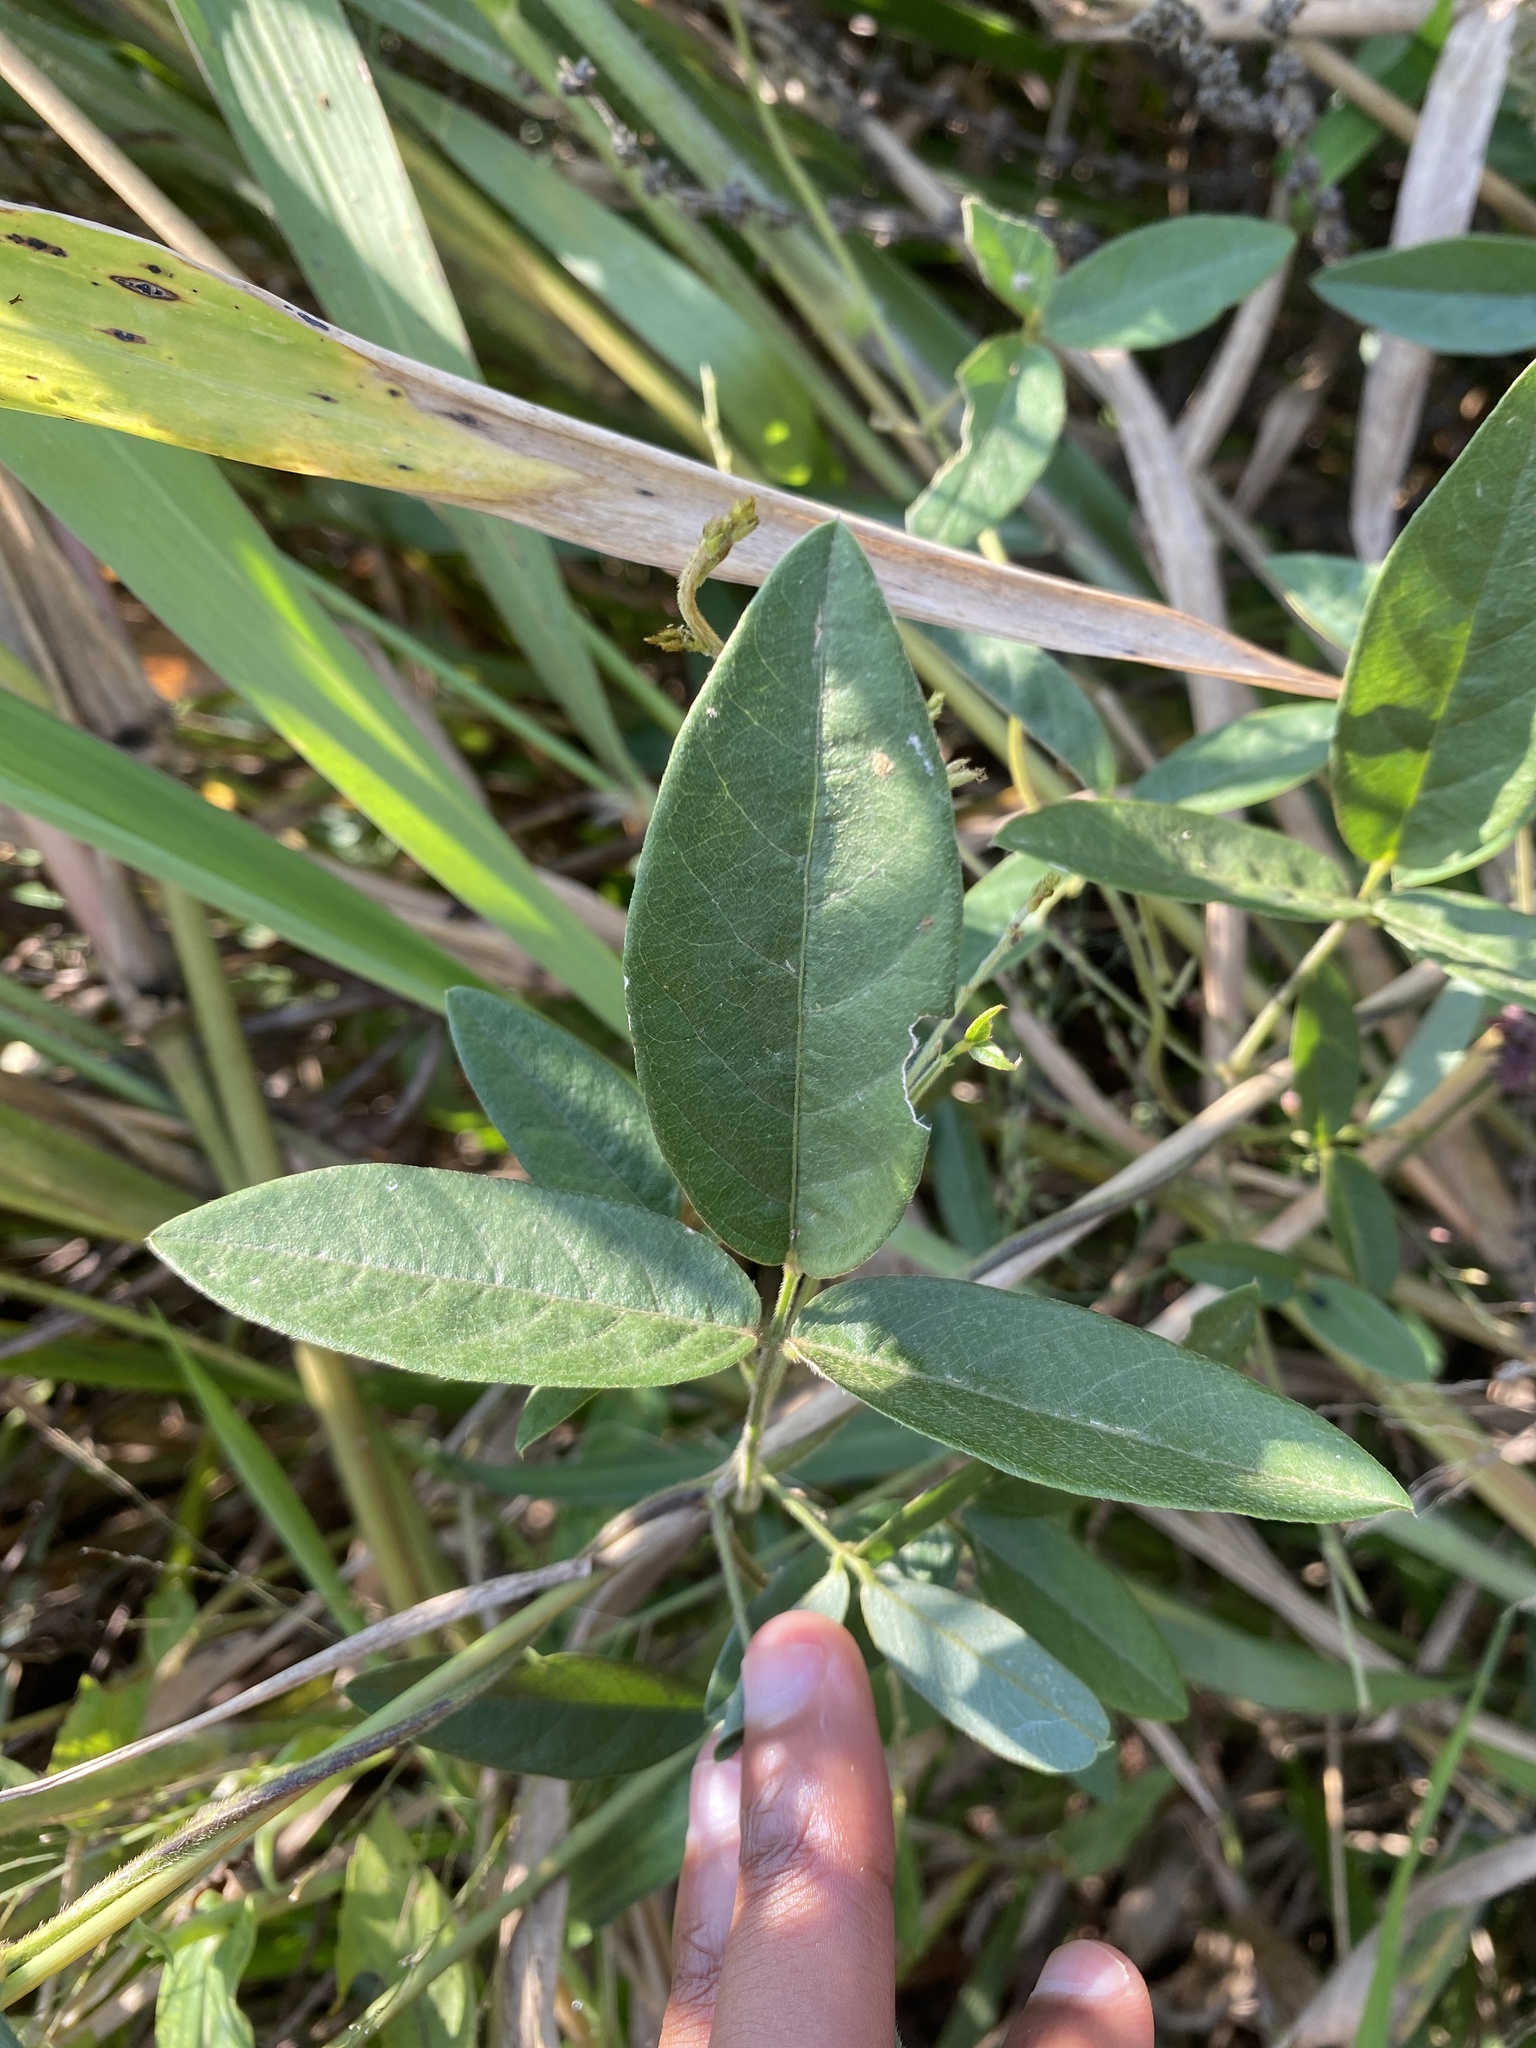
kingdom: Plantae
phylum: Tracheophyta
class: Magnoliopsida
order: Fabales
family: Fabaceae
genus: Teramnus
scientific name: Teramnus labialis
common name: Blue wiss
